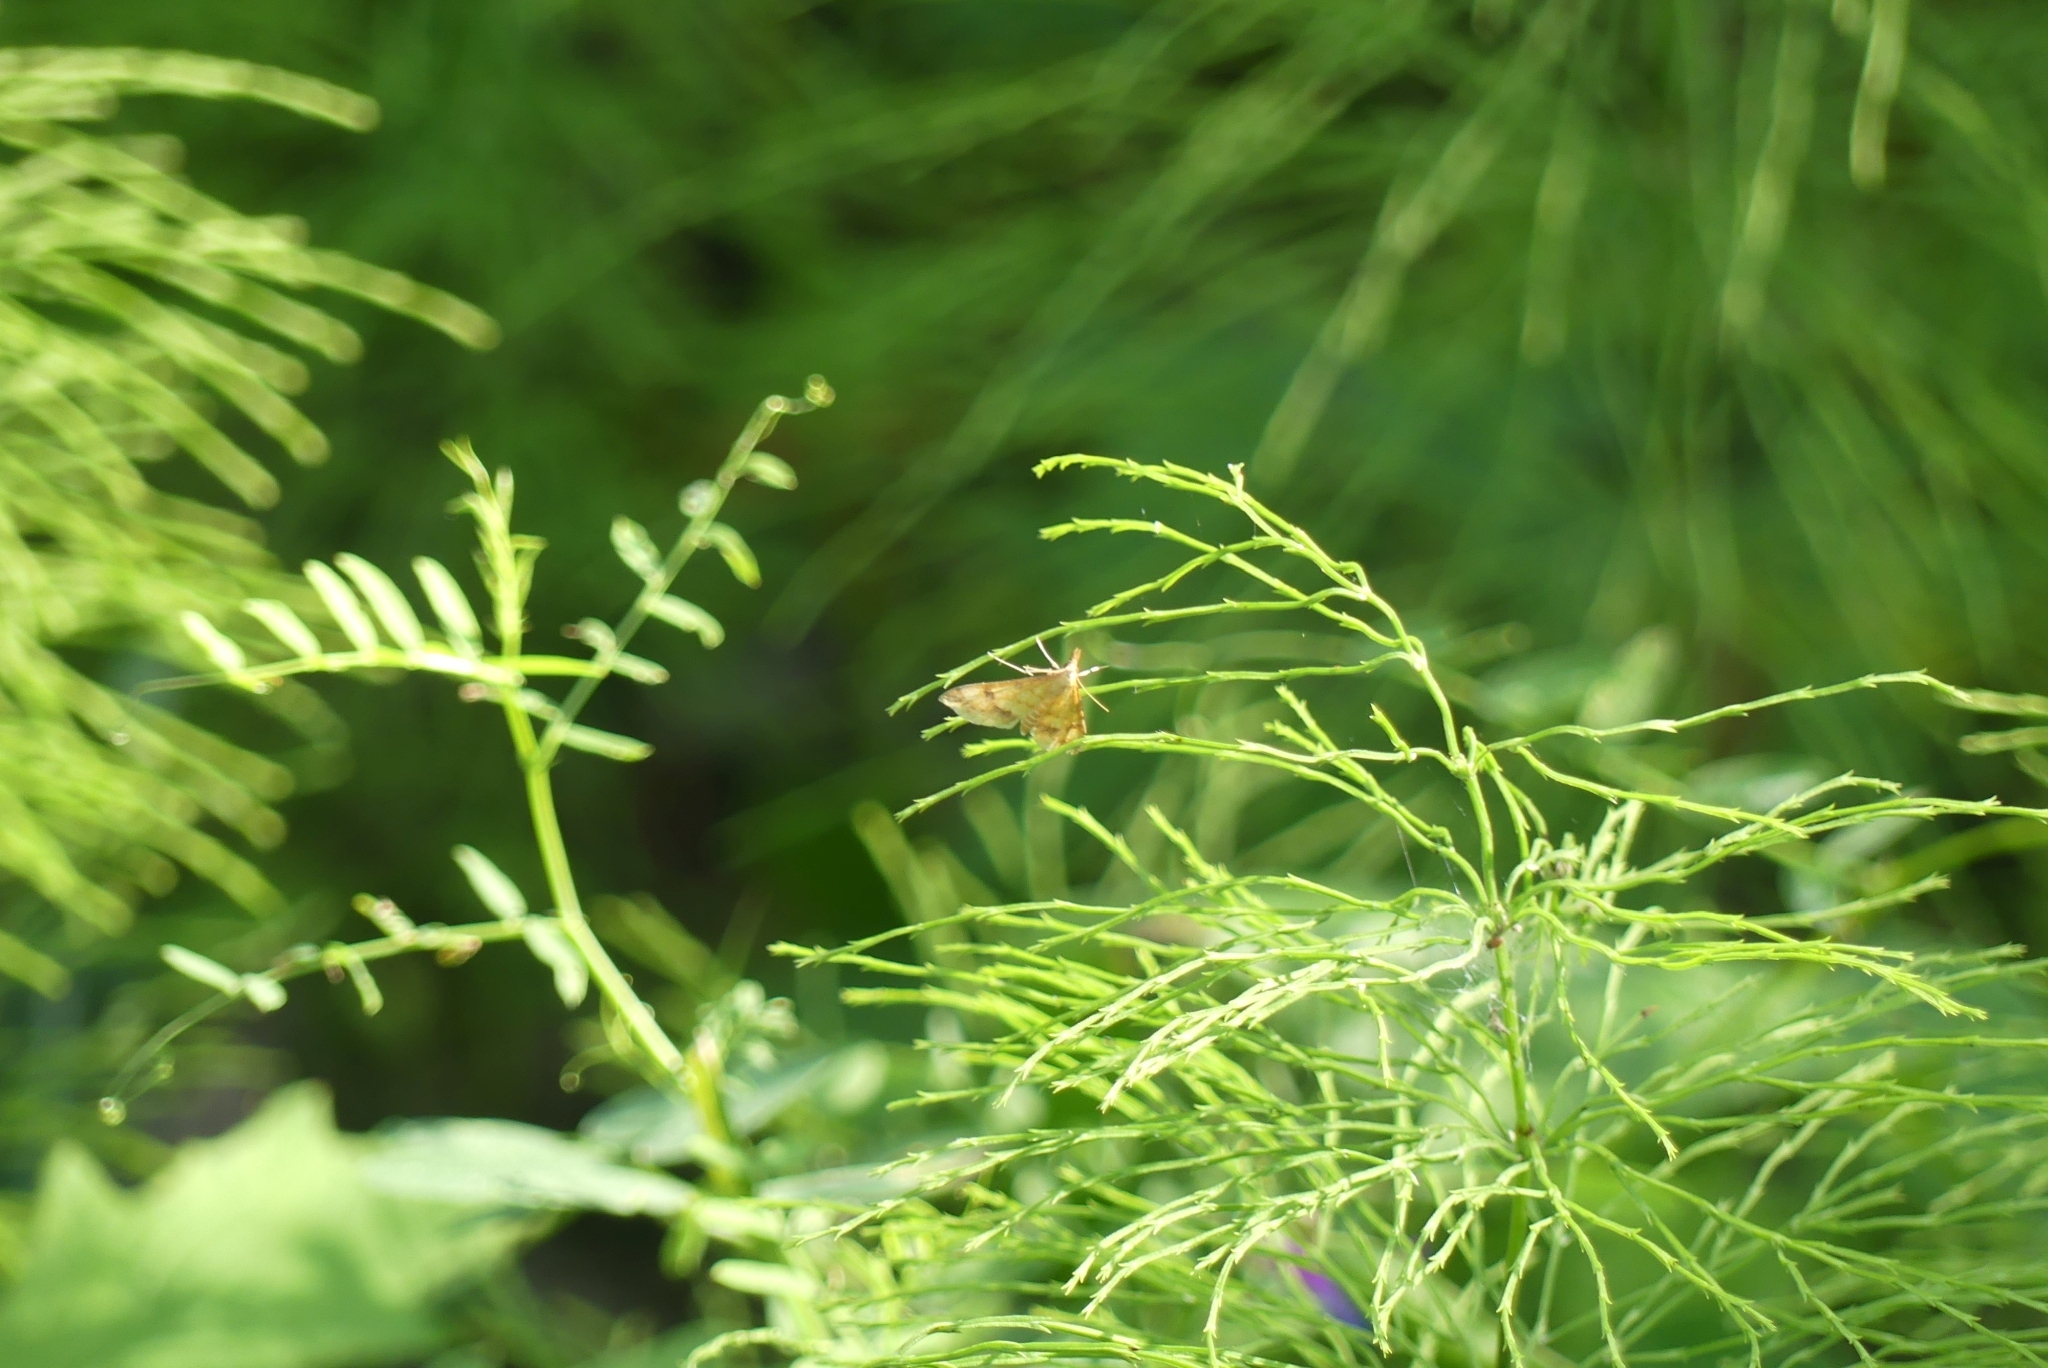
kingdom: Animalia
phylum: Arthropoda
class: Insecta
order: Lepidoptera
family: Crambidae
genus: Choristostigma
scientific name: Choristostigma plumbosignalis
